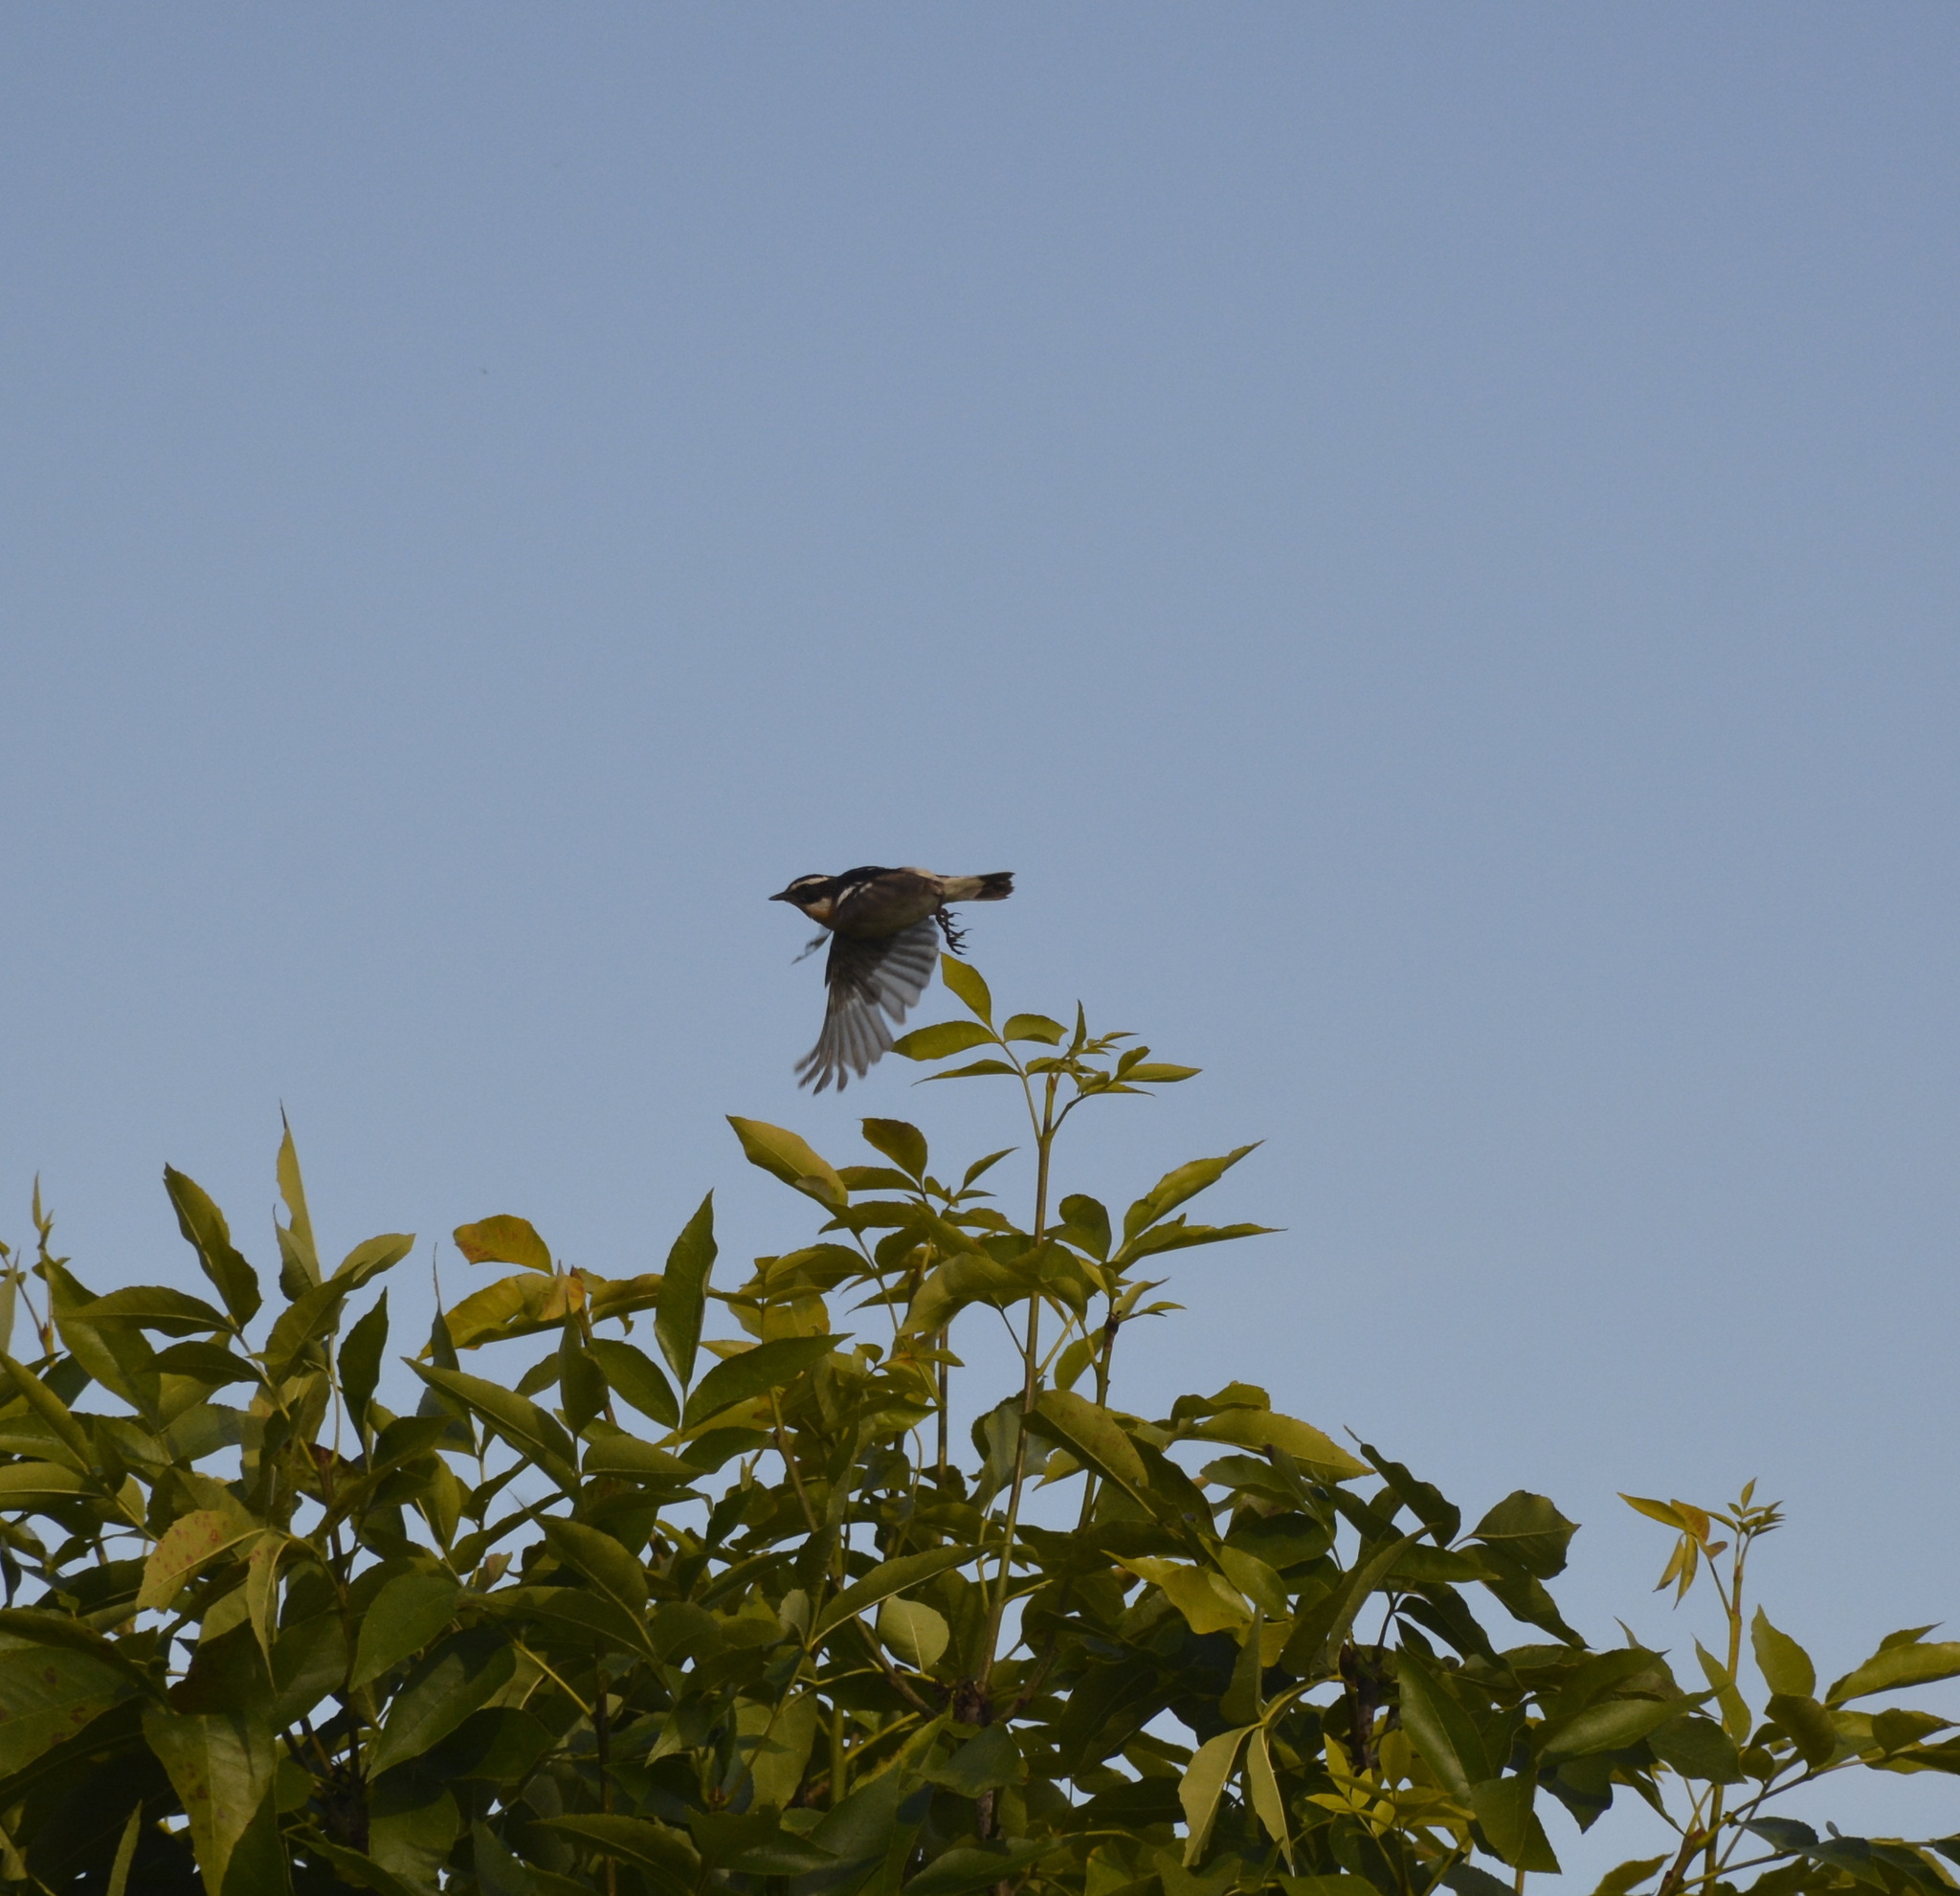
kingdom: Animalia
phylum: Chordata
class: Aves
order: Passeriformes
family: Muscicapidae
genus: Saxicola
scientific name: Saxicola rubetra
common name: Whinchat
